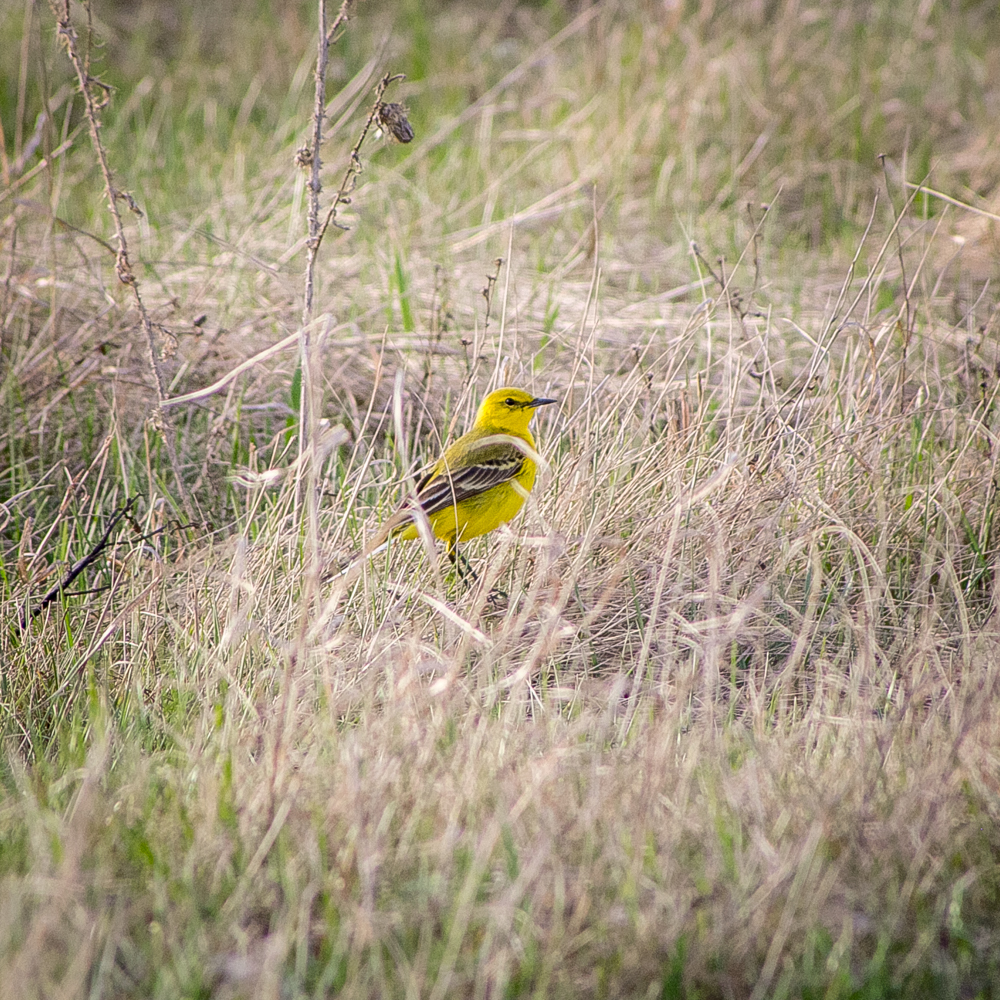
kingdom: Animalia
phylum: Chordata
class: Aves
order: Passeriformes
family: Motacillidae
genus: Motacilla
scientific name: Motacilla flava
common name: Western yellow wagtail
